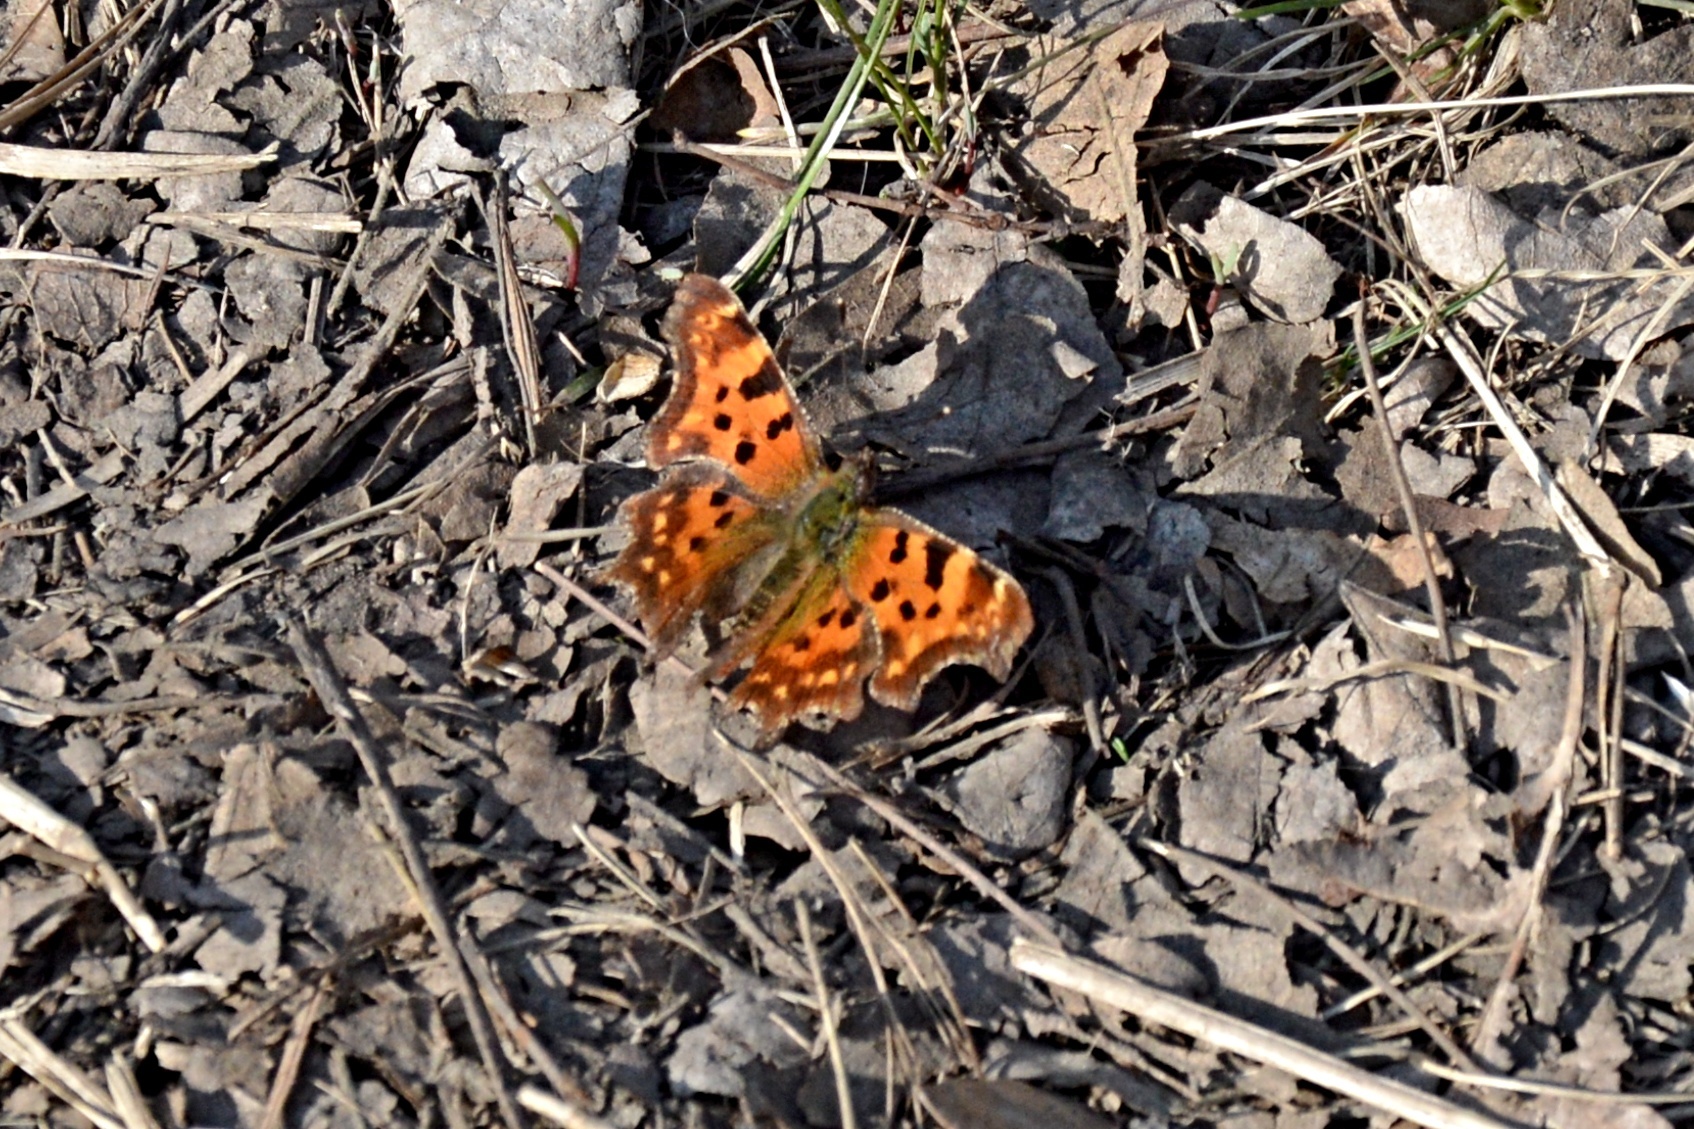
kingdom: Animalia
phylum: Arthropoda
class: Insecta
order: Lepidoptera
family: Nymphalidae
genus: Polygonia
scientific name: Polygonia c-album
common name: Comma
